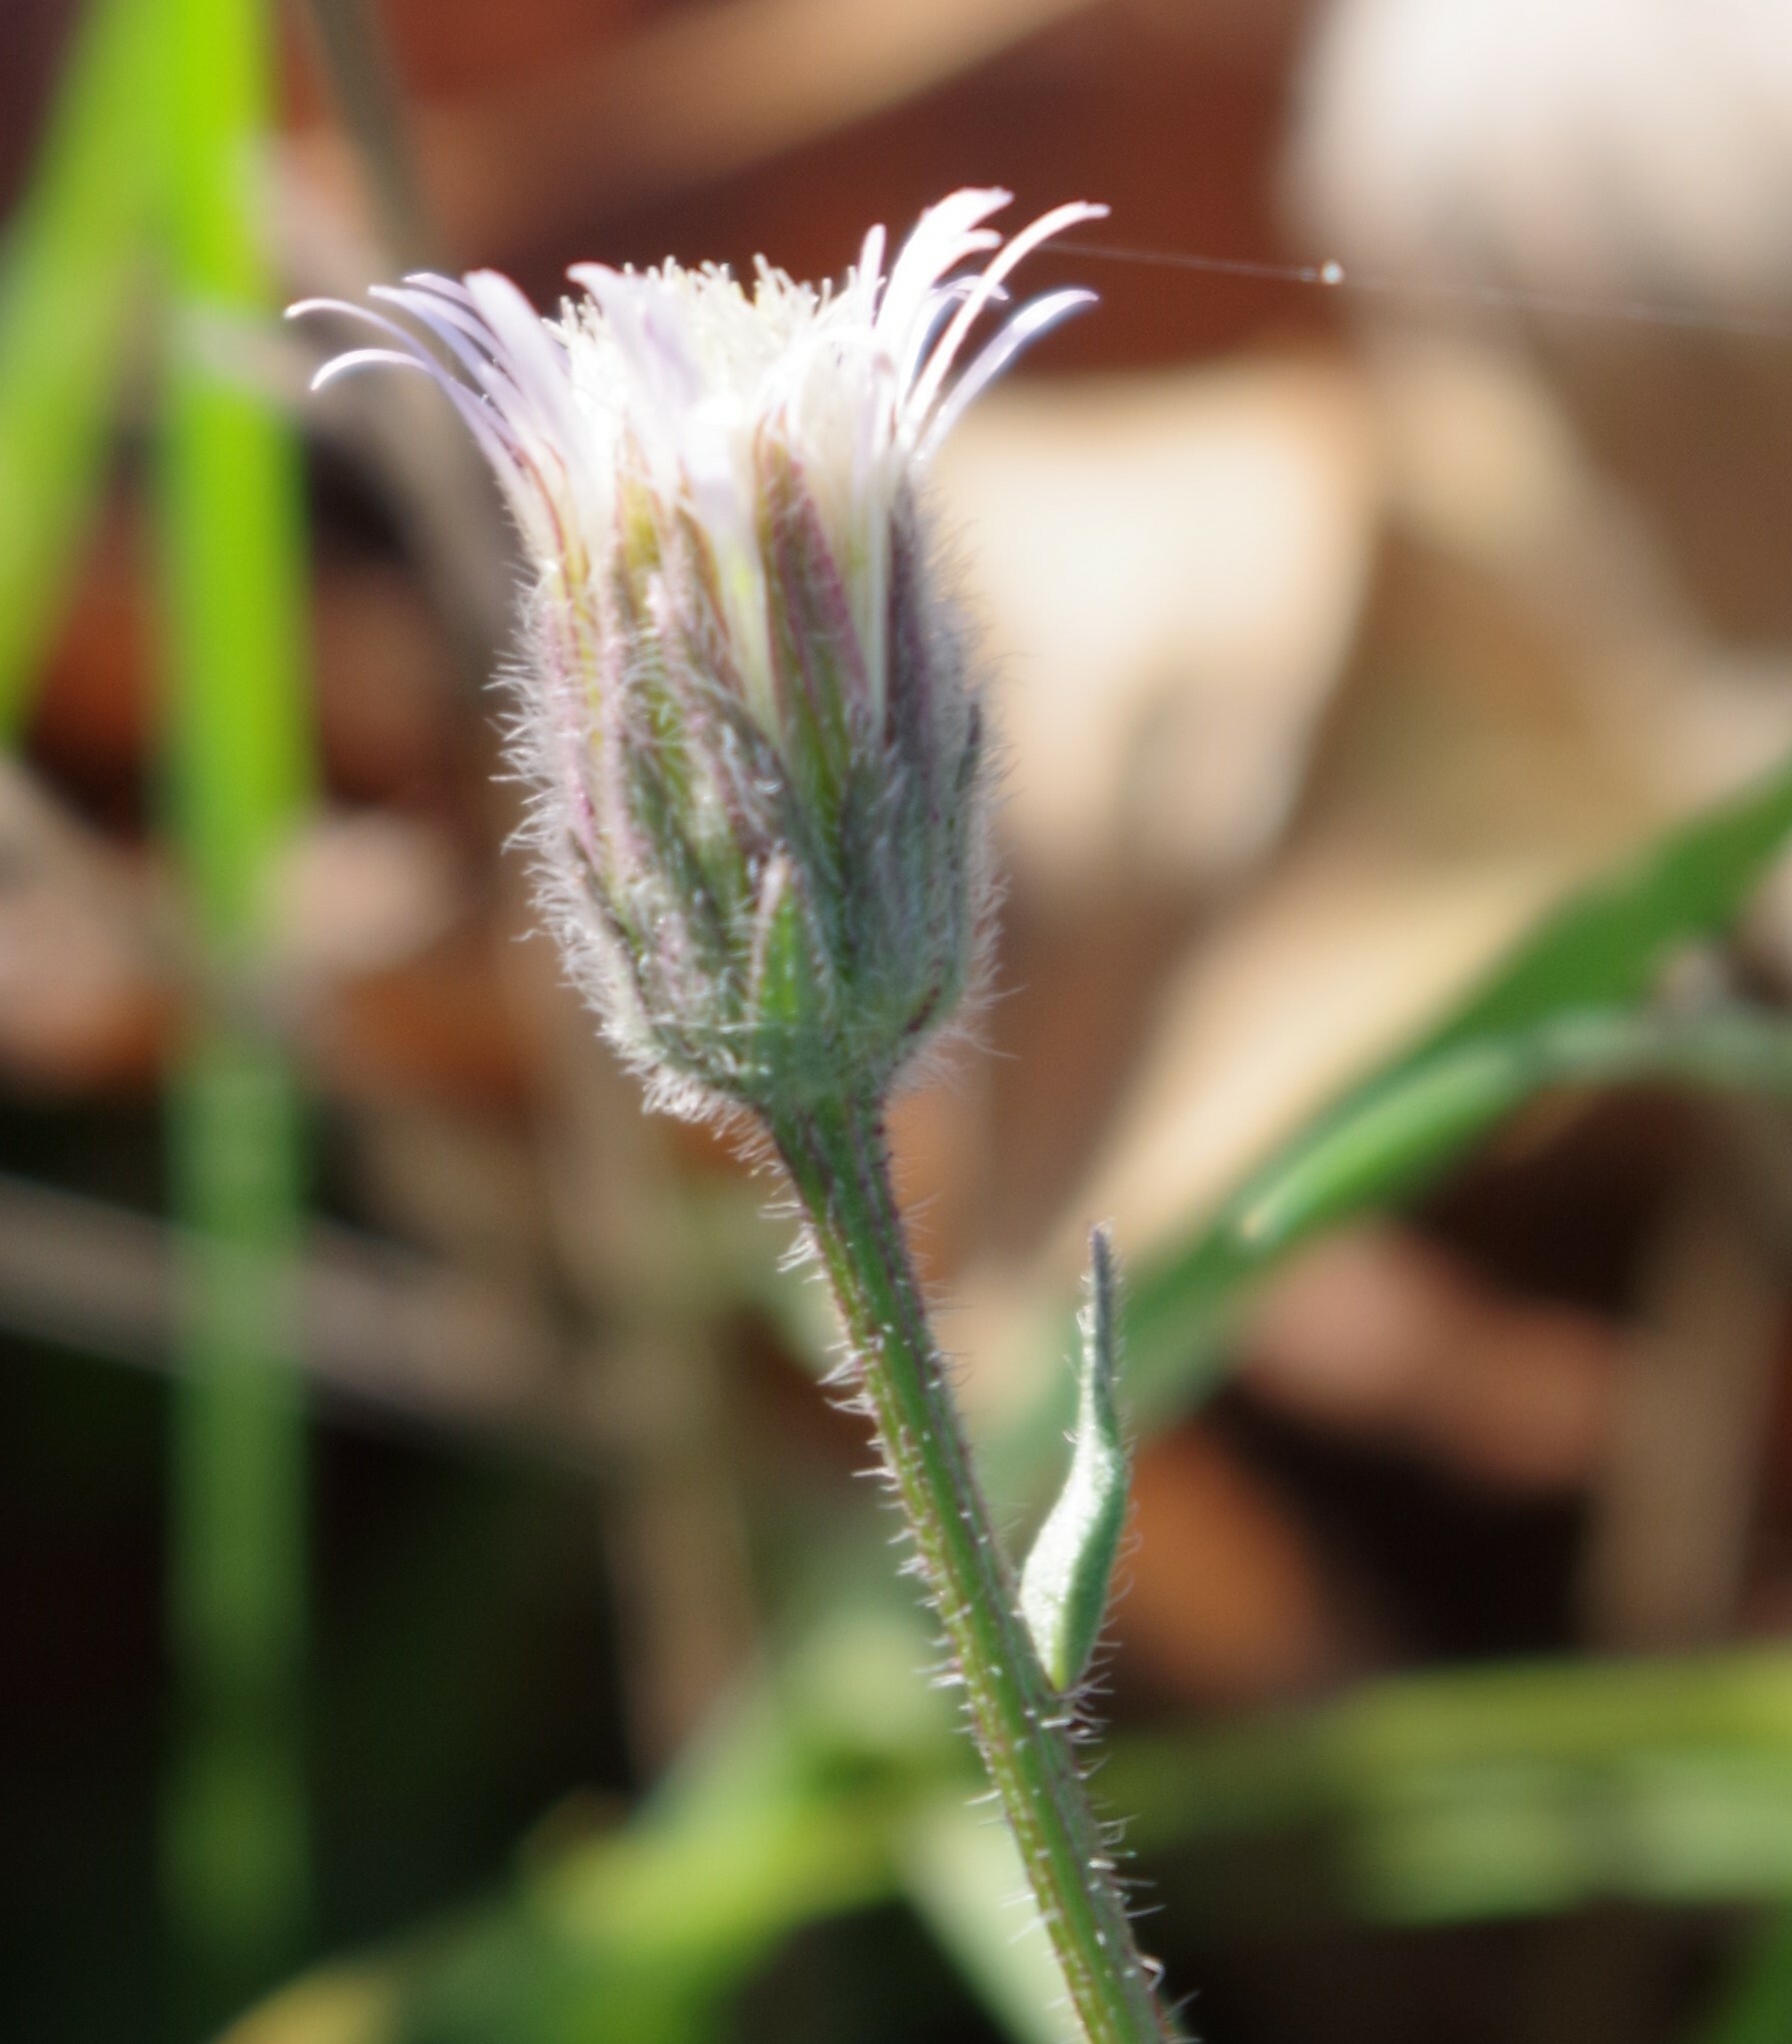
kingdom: Plantae
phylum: Tracheophyta
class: Magnoliopsida
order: Asterales
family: Asteraceae
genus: Erigeron
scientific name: Erigeron acris
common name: Blue fleabane
